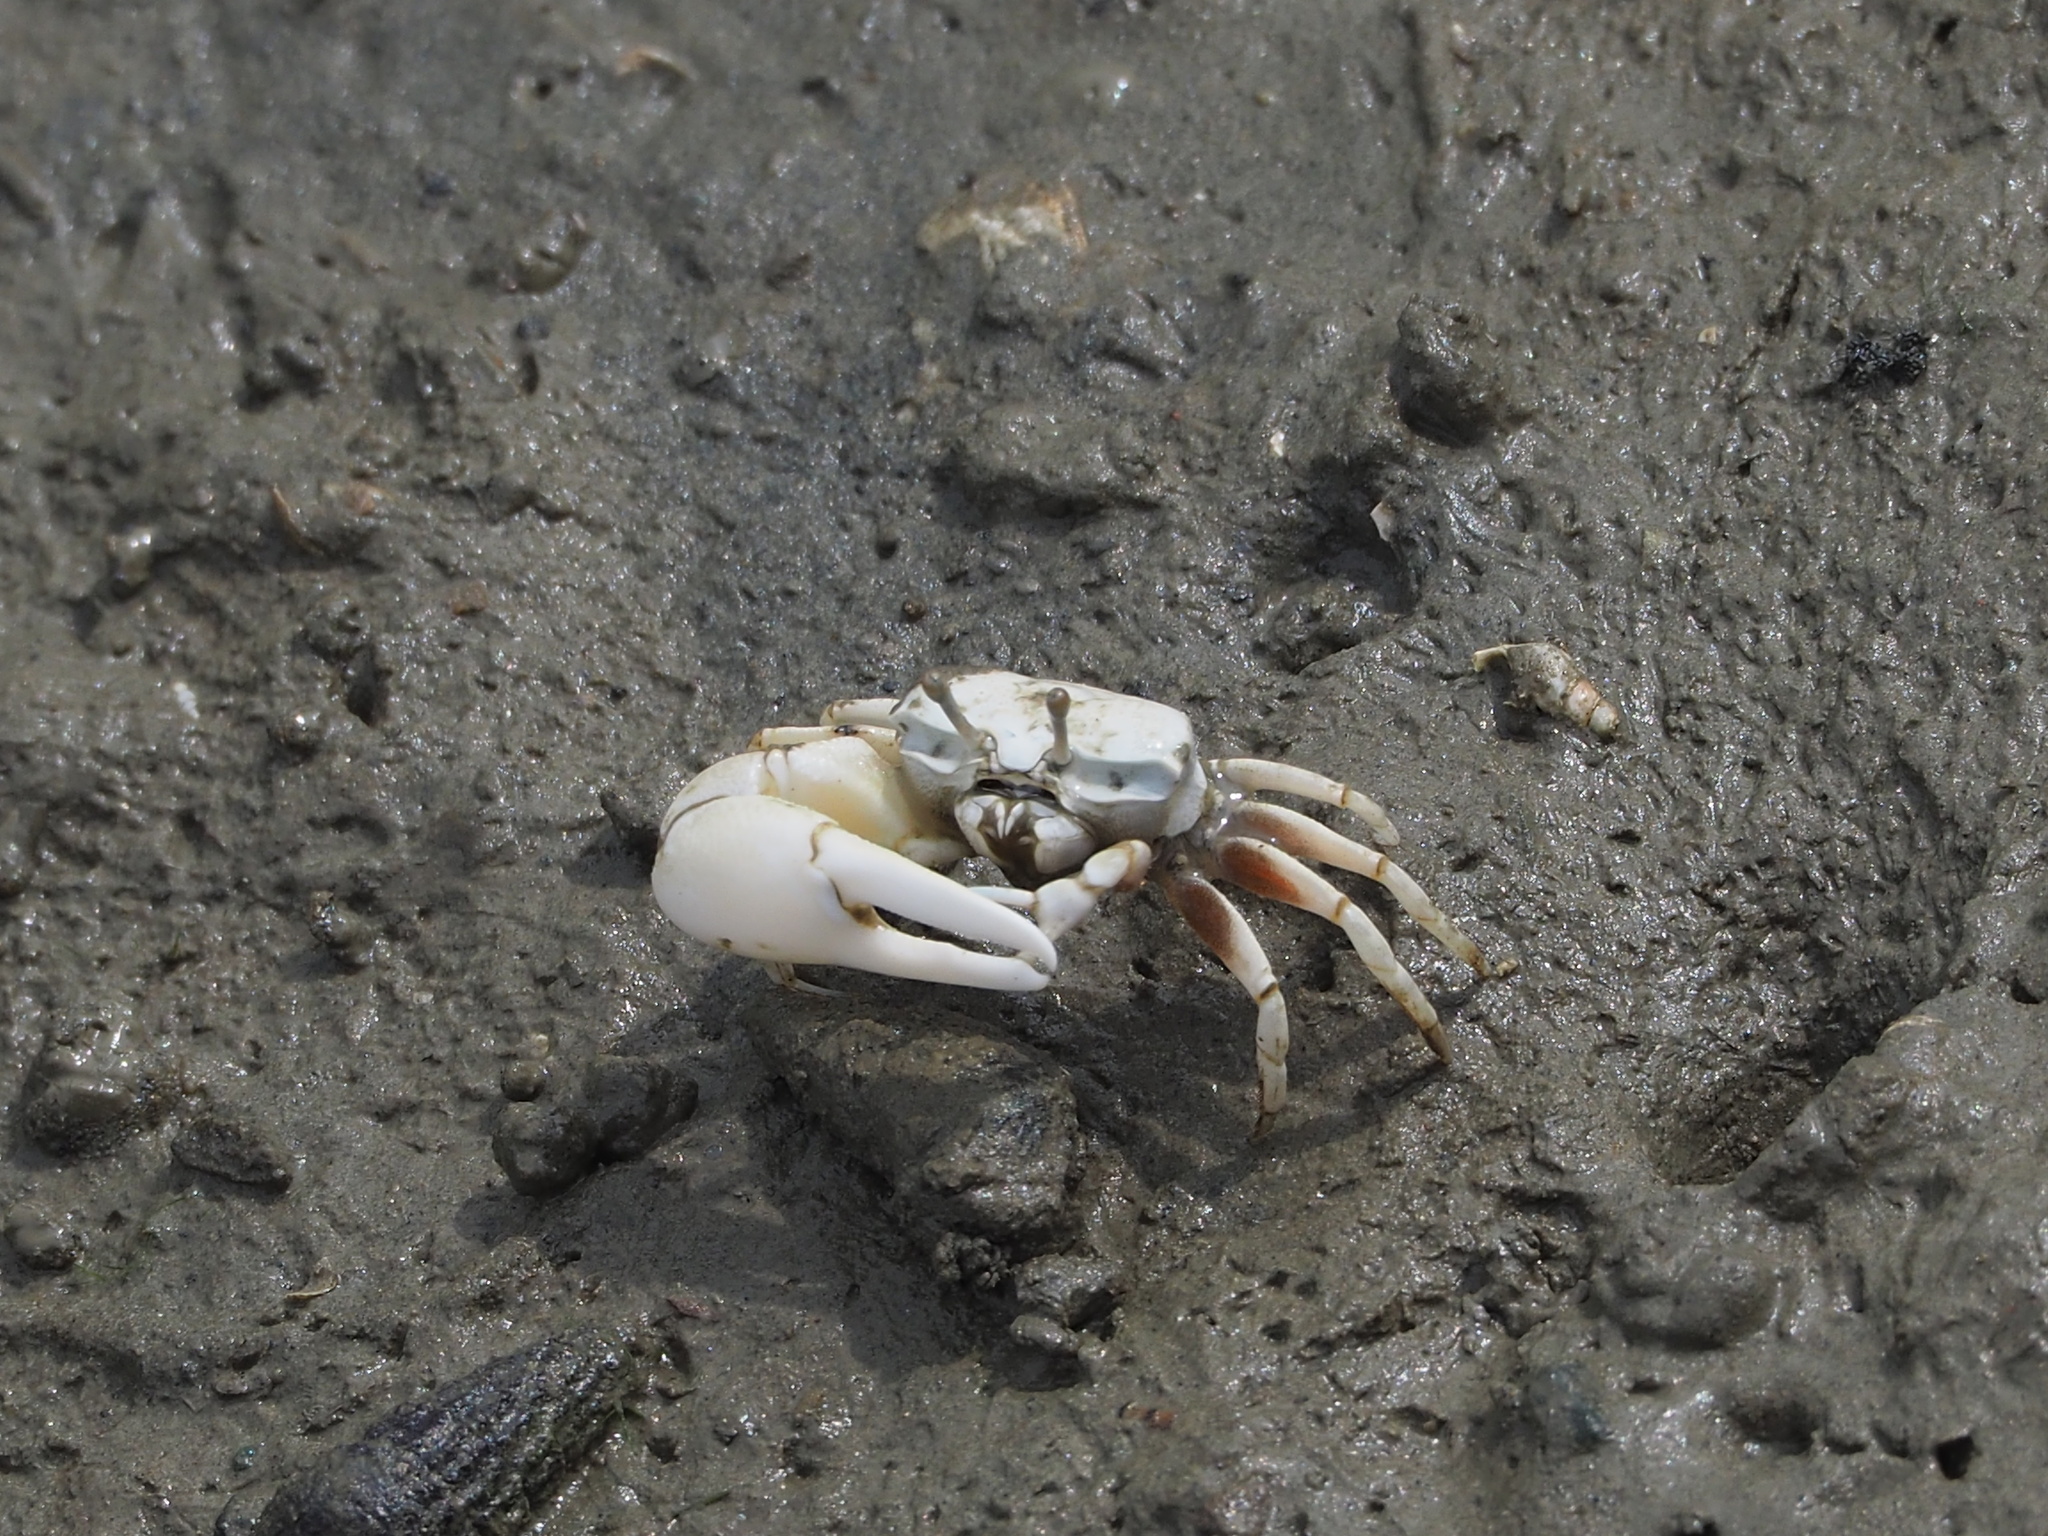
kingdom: Animalia
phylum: Arthropoda
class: Malacostraca
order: Decapoda
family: Ocypodidae
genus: Austruca
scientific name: Austruca lactea
